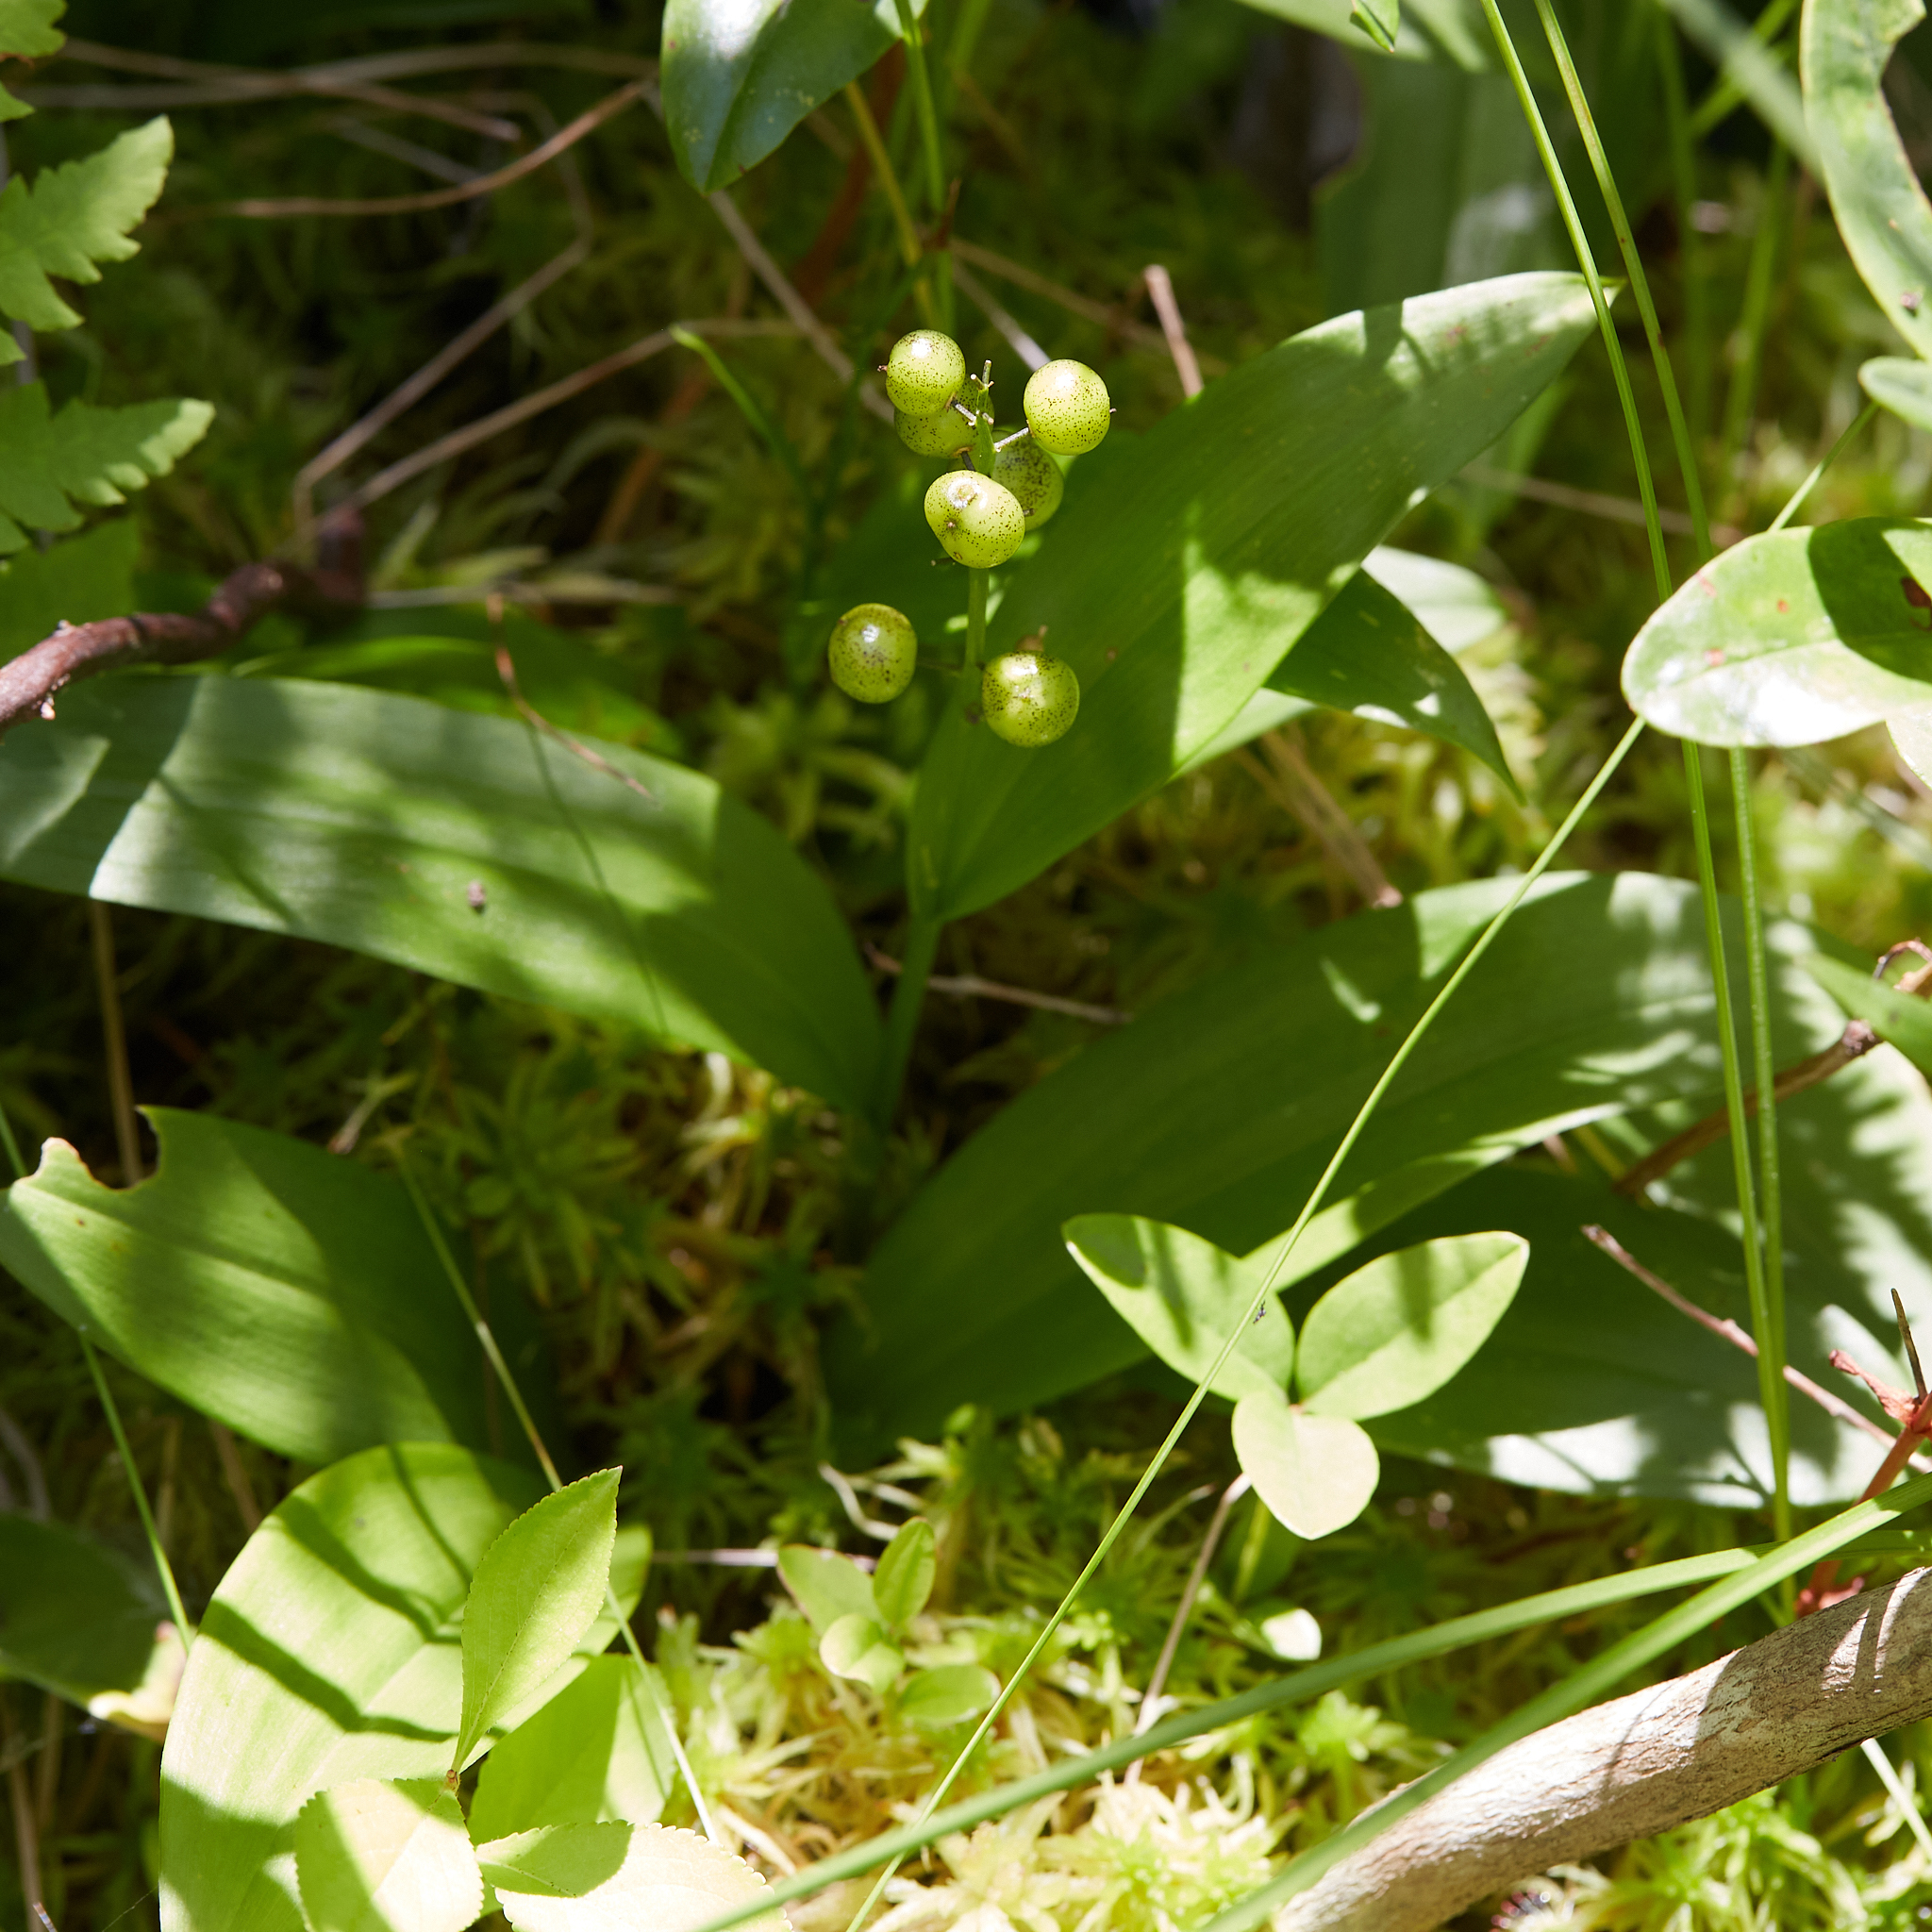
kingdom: Plantae
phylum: Tracheophyta
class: Liliopsida
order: Asparagales
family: Asparagaceae
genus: Maianthemum
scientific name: Maianthemum trifolium
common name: Swamp false solomon's seal
